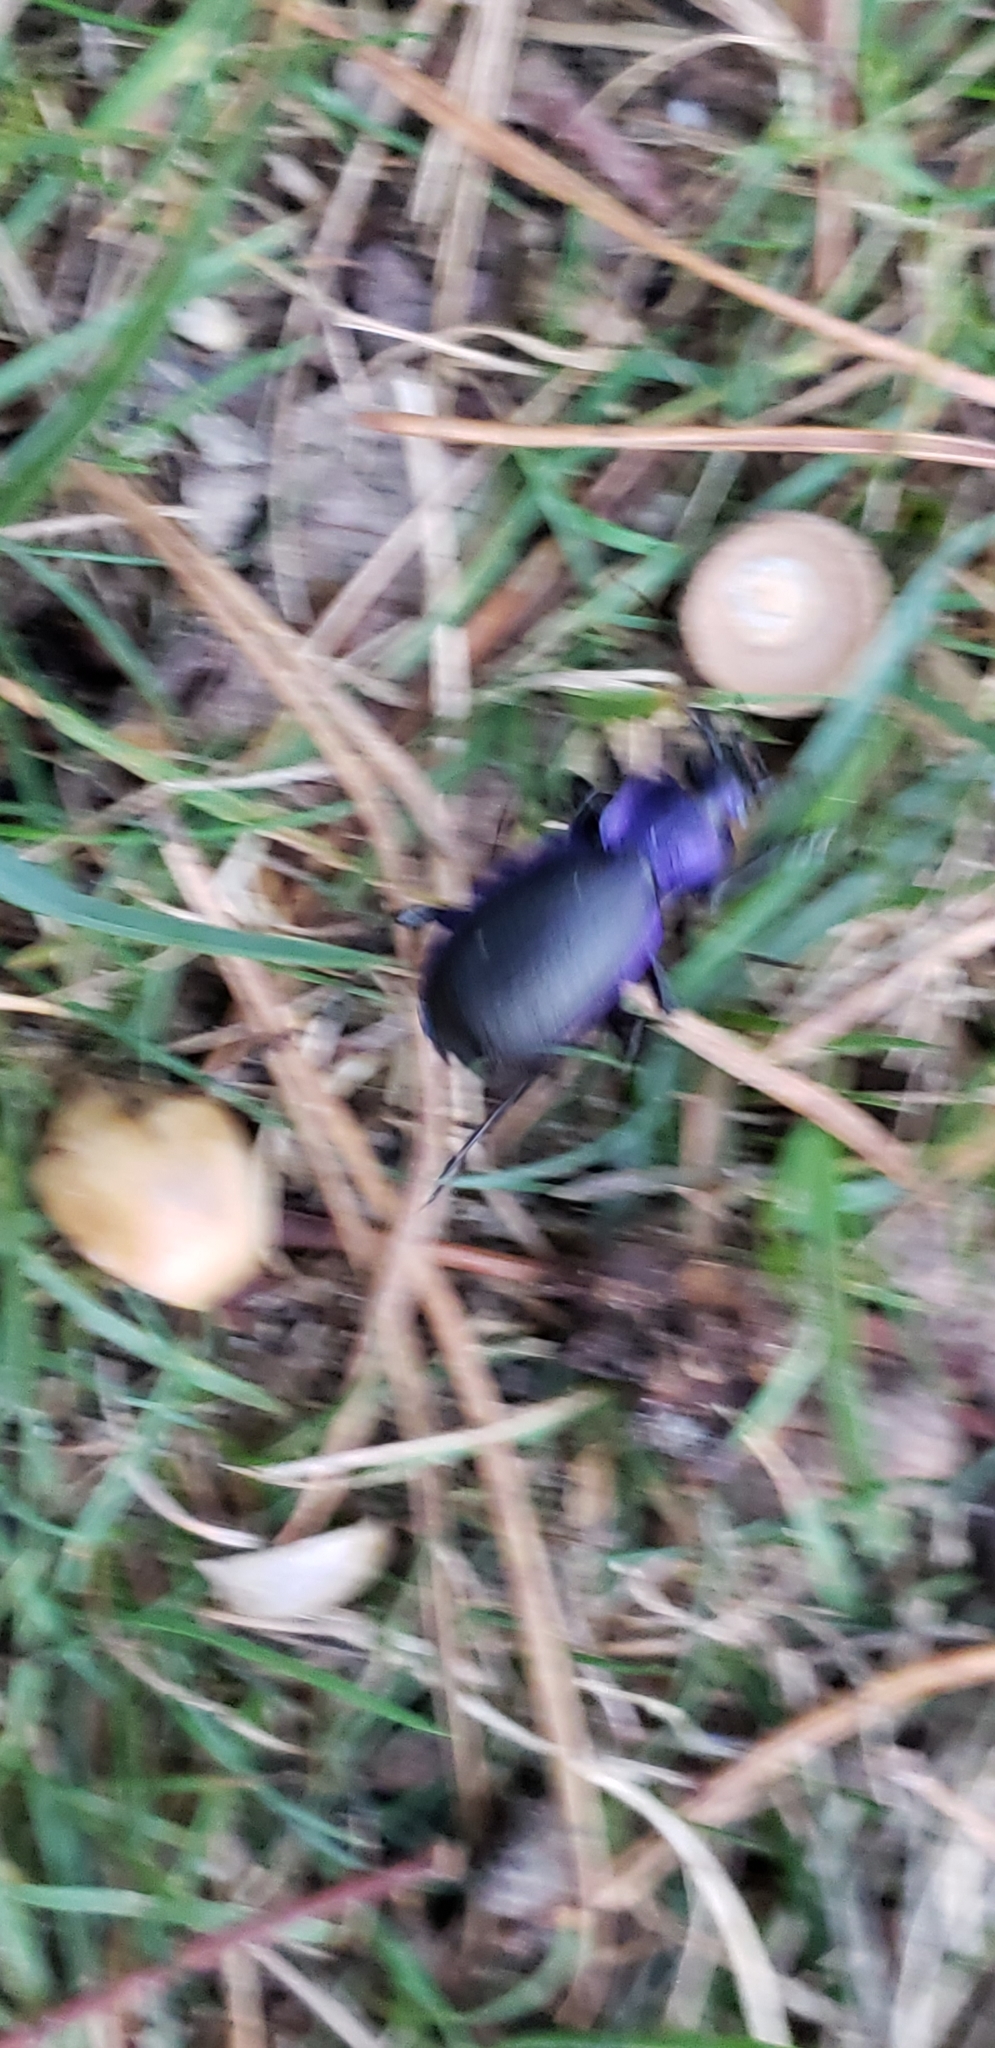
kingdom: Animalia
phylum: Arthropoda
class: Insecta
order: Coleoptera
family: Carabidae
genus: Carabus
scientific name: Carabus problematicus
